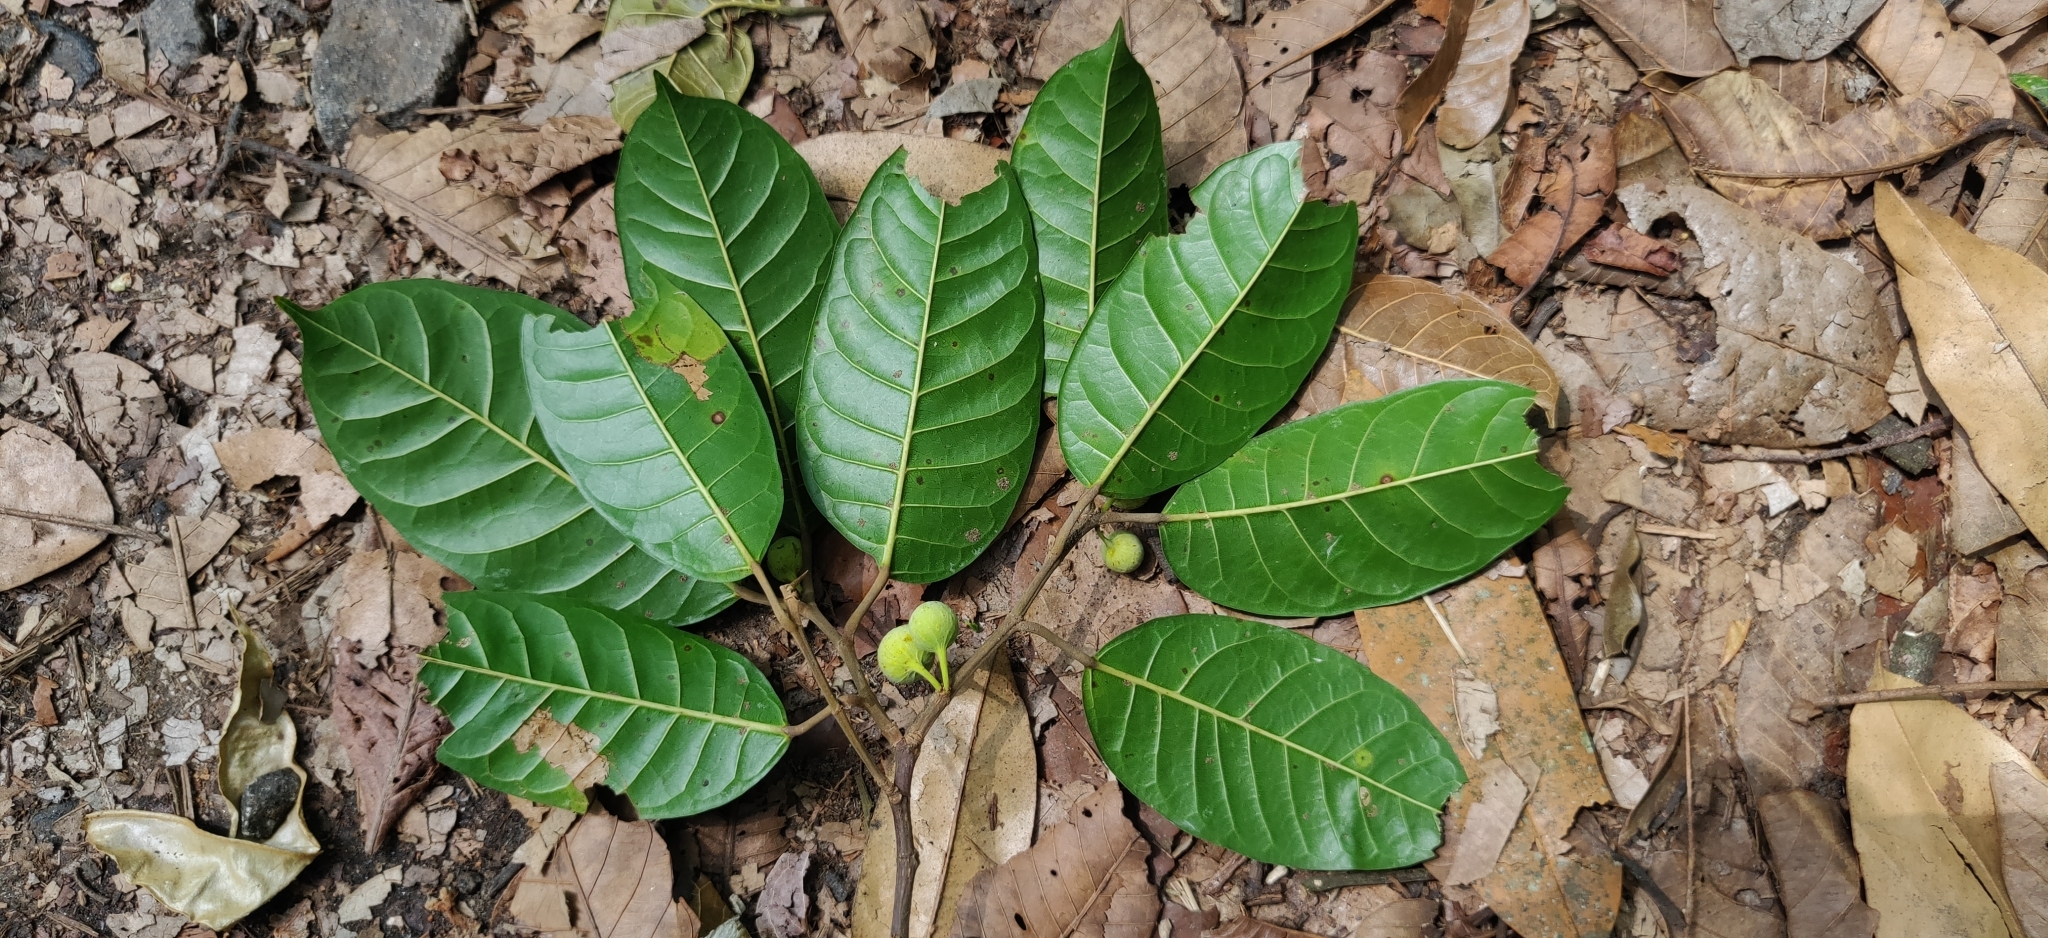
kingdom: Plantae
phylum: Tracheophyta
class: Magnoliopsida
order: Rosales
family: Moraceae
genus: Ficus
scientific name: Ficus nervosa
